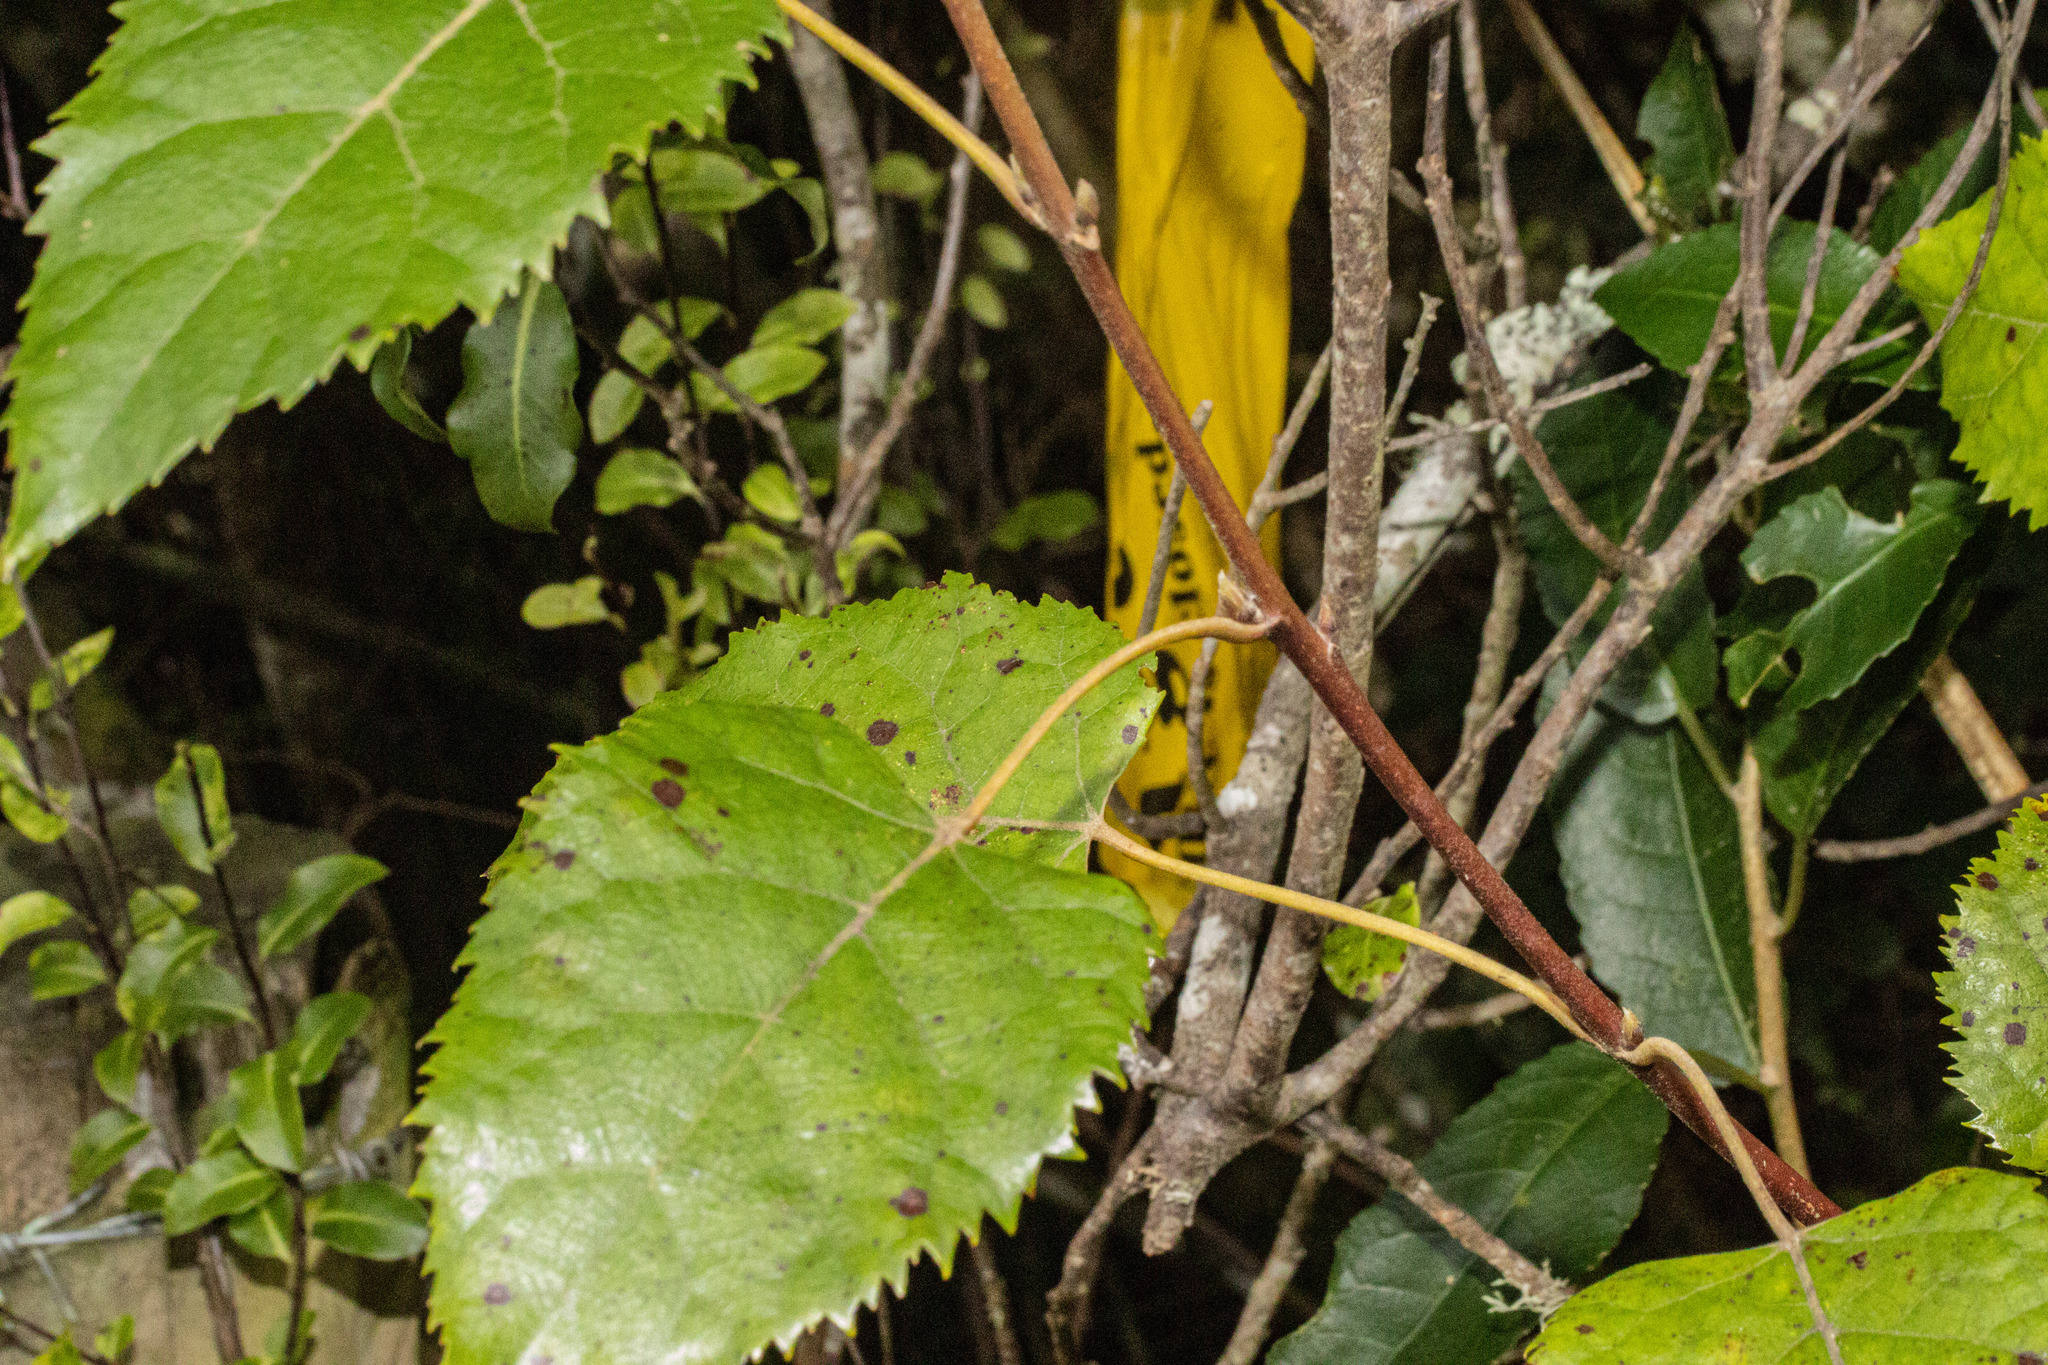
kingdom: Plantae
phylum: Tracheophyta
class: Magnoliopsida
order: Oxalidales
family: Elaeocarpaceae
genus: Aristotelia
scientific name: Aristotelia serrata
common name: New zealand wineberry
